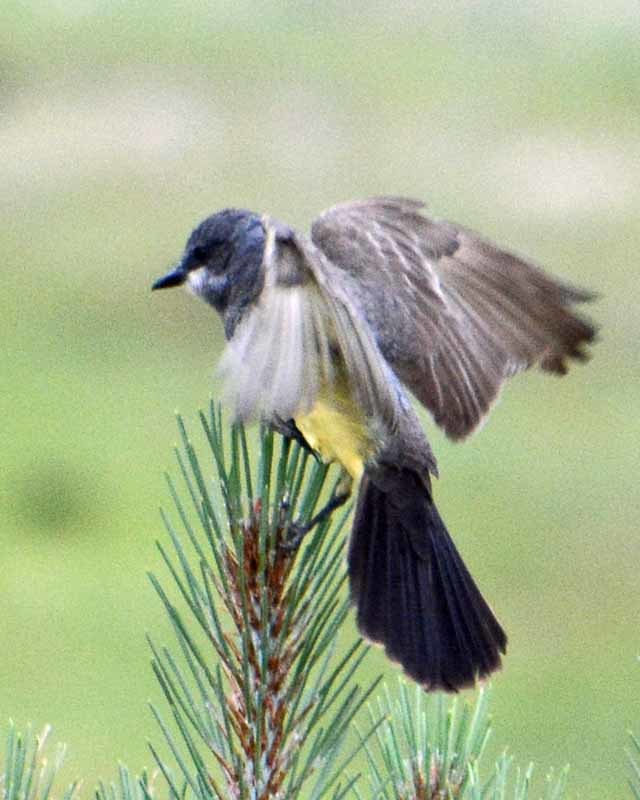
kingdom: Animalia
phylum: Chordata
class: Aves
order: Passeriformes
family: Tyrannidae
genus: Tyrannus
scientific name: Tyrannus vociferans
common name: Cassin's kingbird
